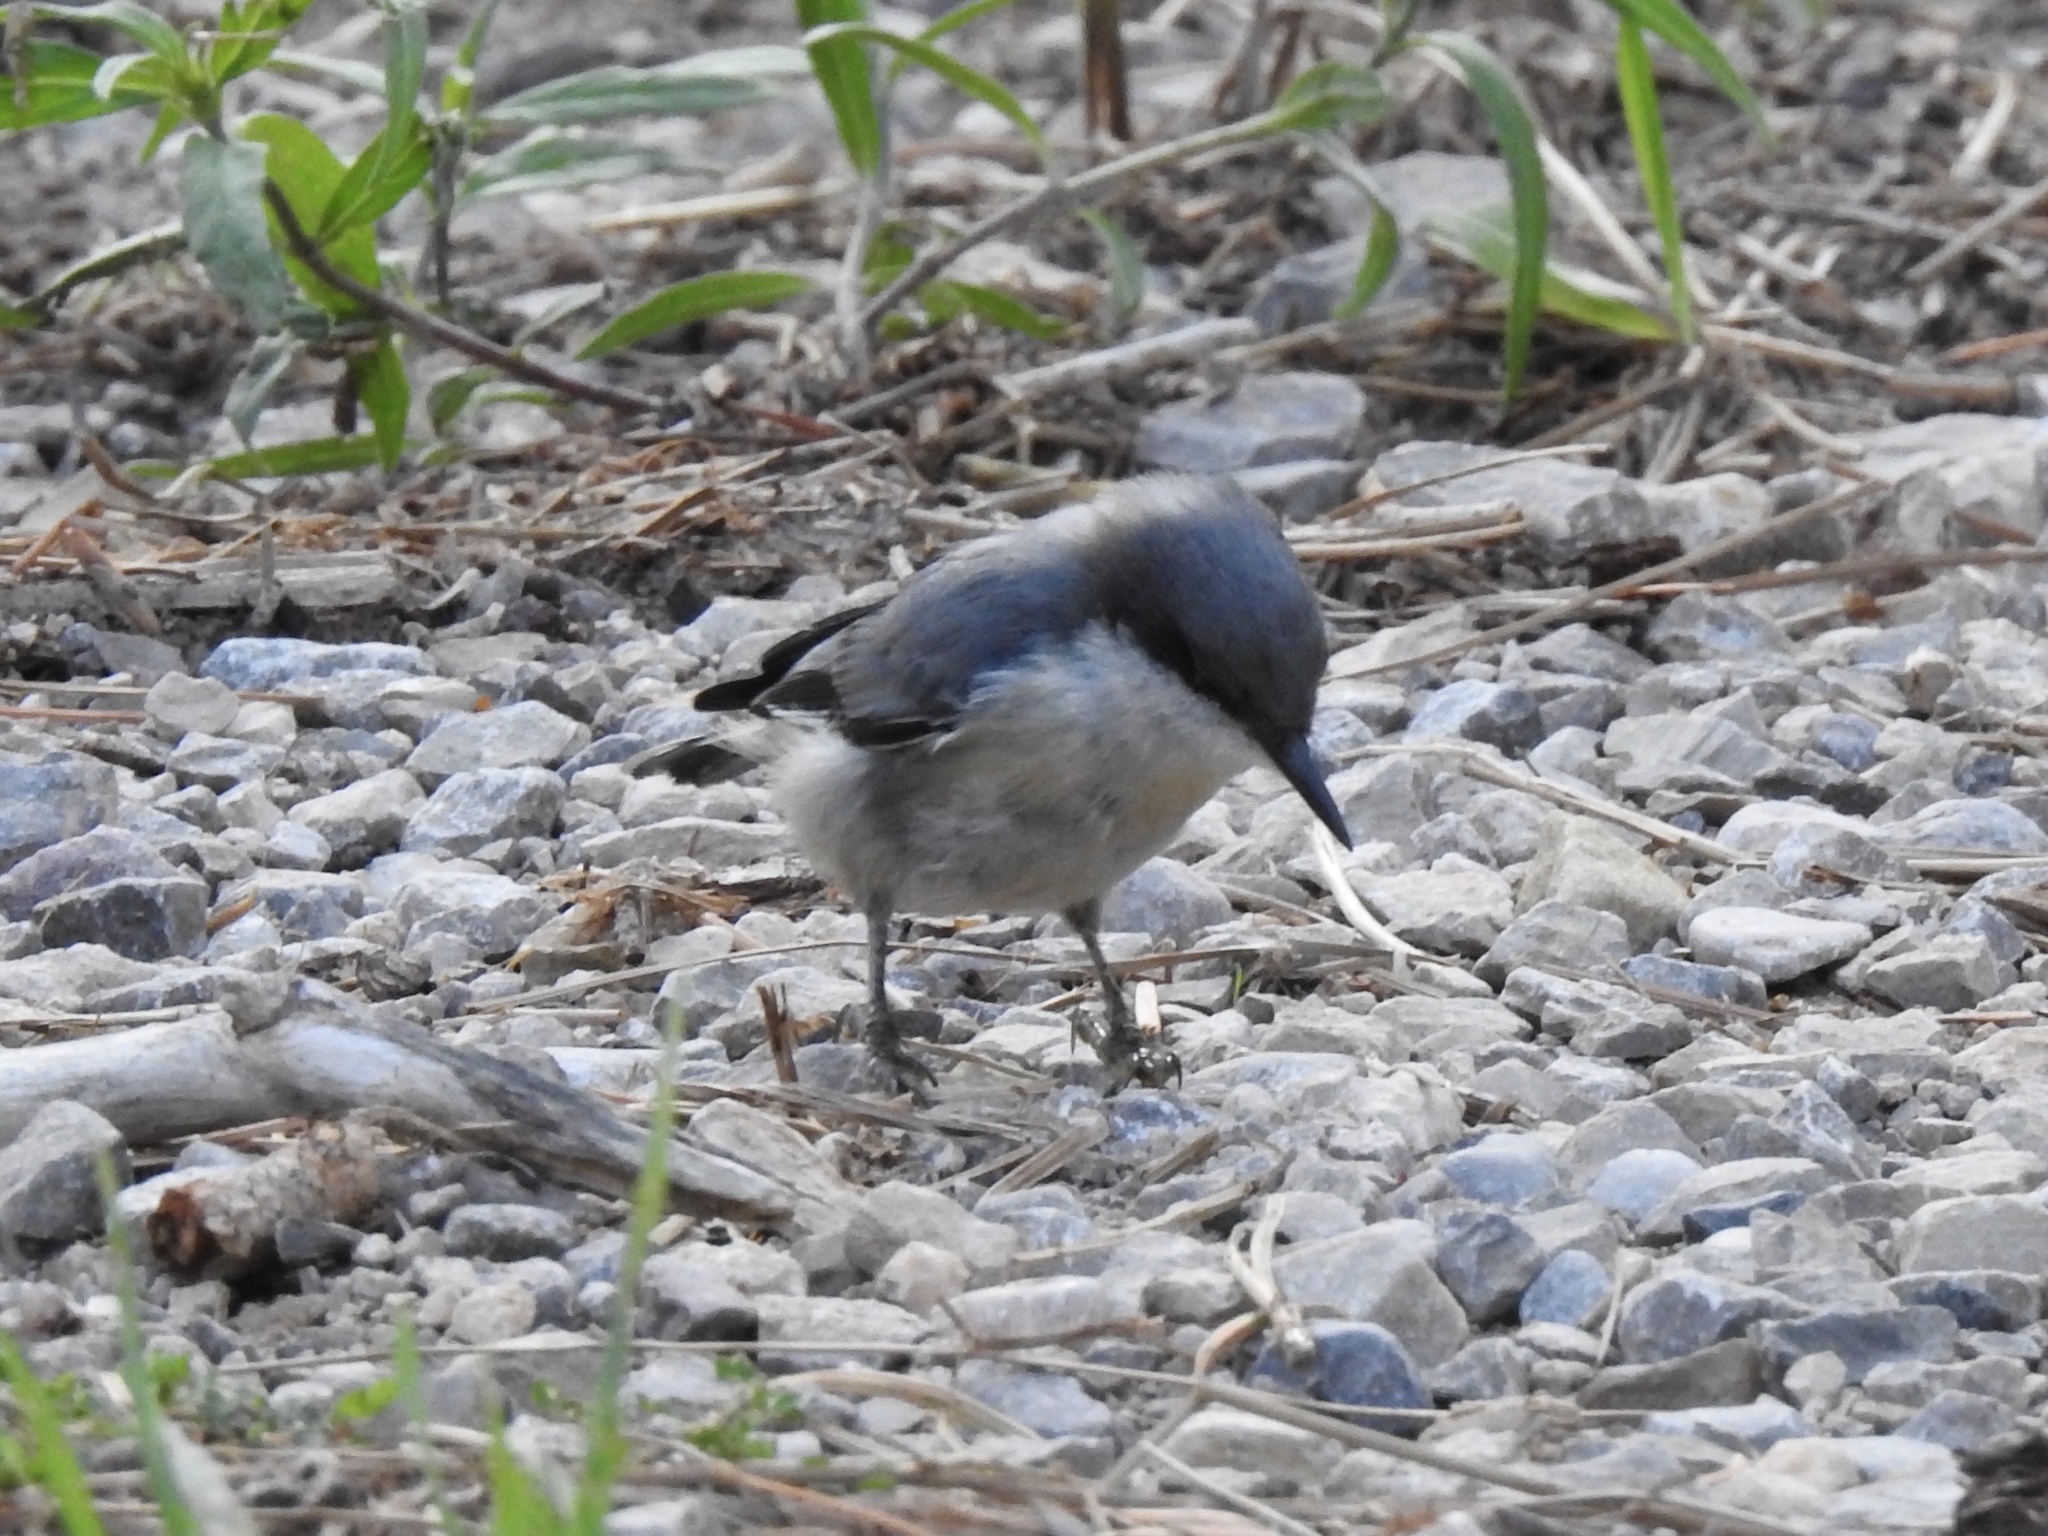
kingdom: Animalia
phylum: Chordata
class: Aves
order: Passeriformes
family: Sittidae
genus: Sitta
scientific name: Sitta pygmaea
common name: Pygmy nuthatch
